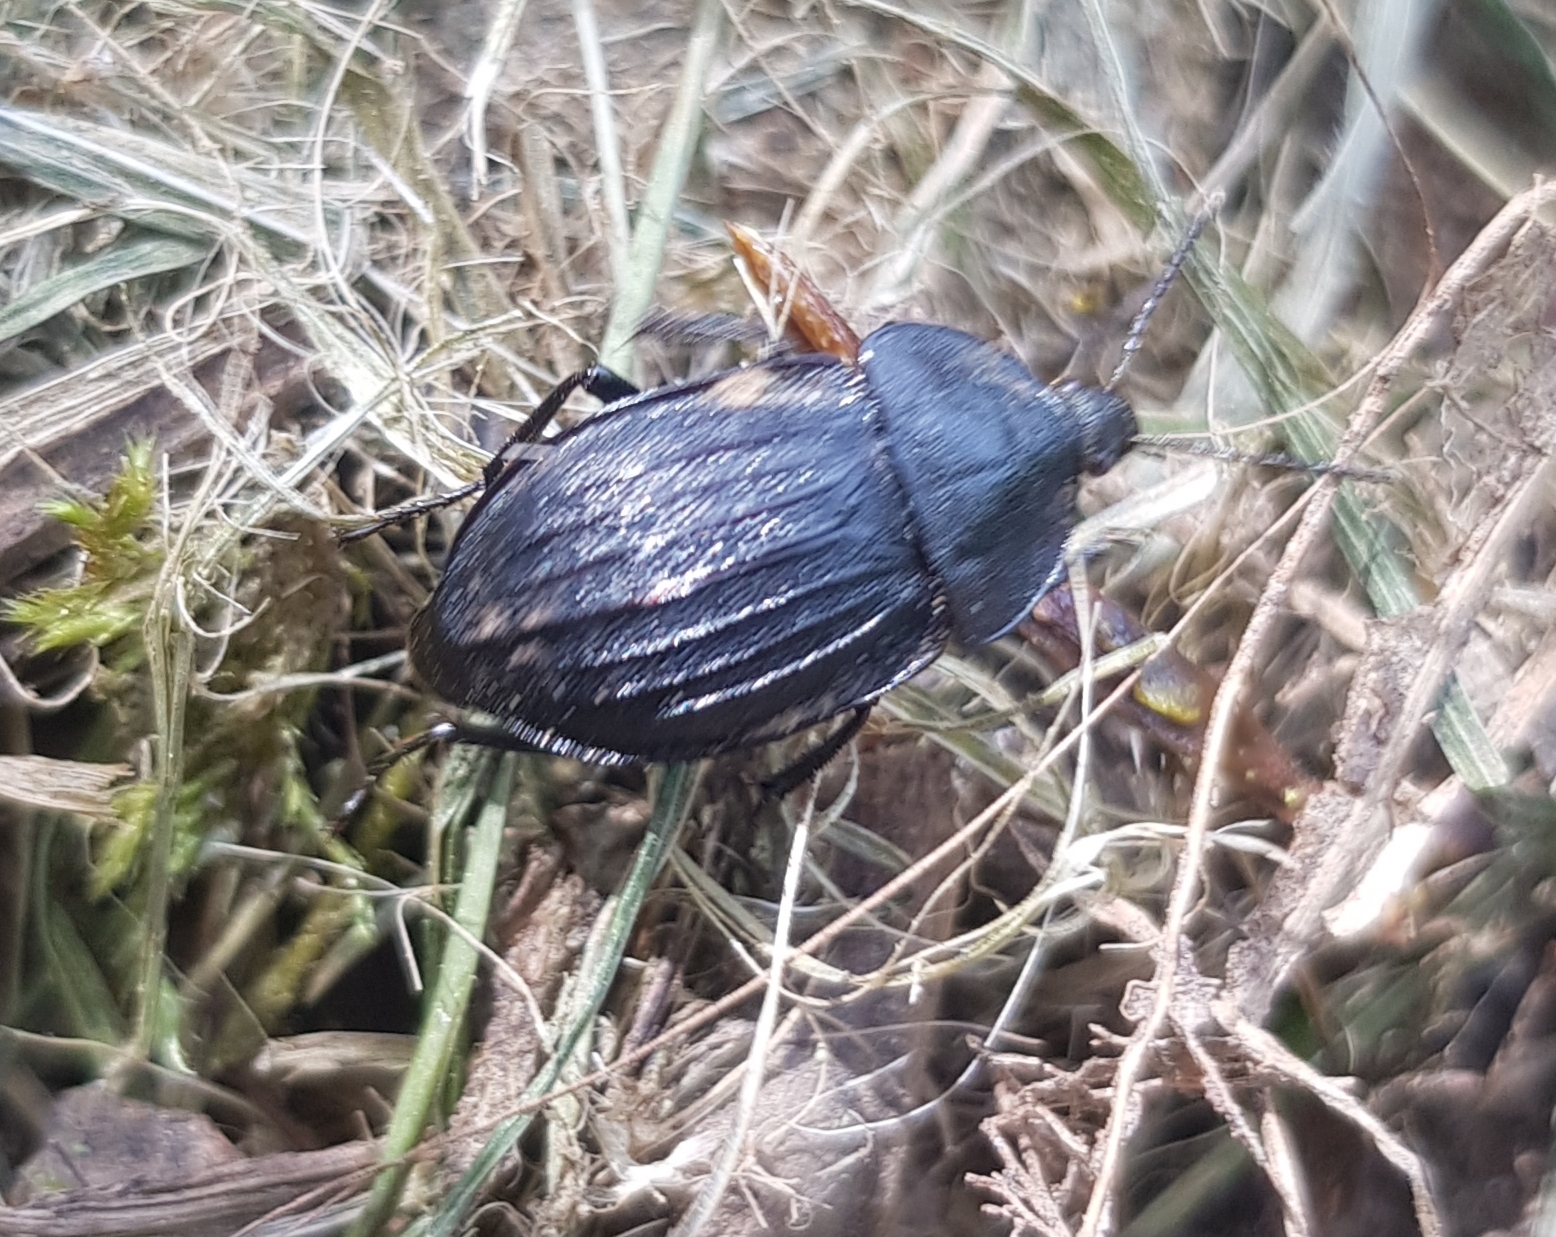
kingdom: Animalia
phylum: Arthropoda
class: Insecta
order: Coleoptera
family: Staphylinidae
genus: Silpha
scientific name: Silpha atrata
